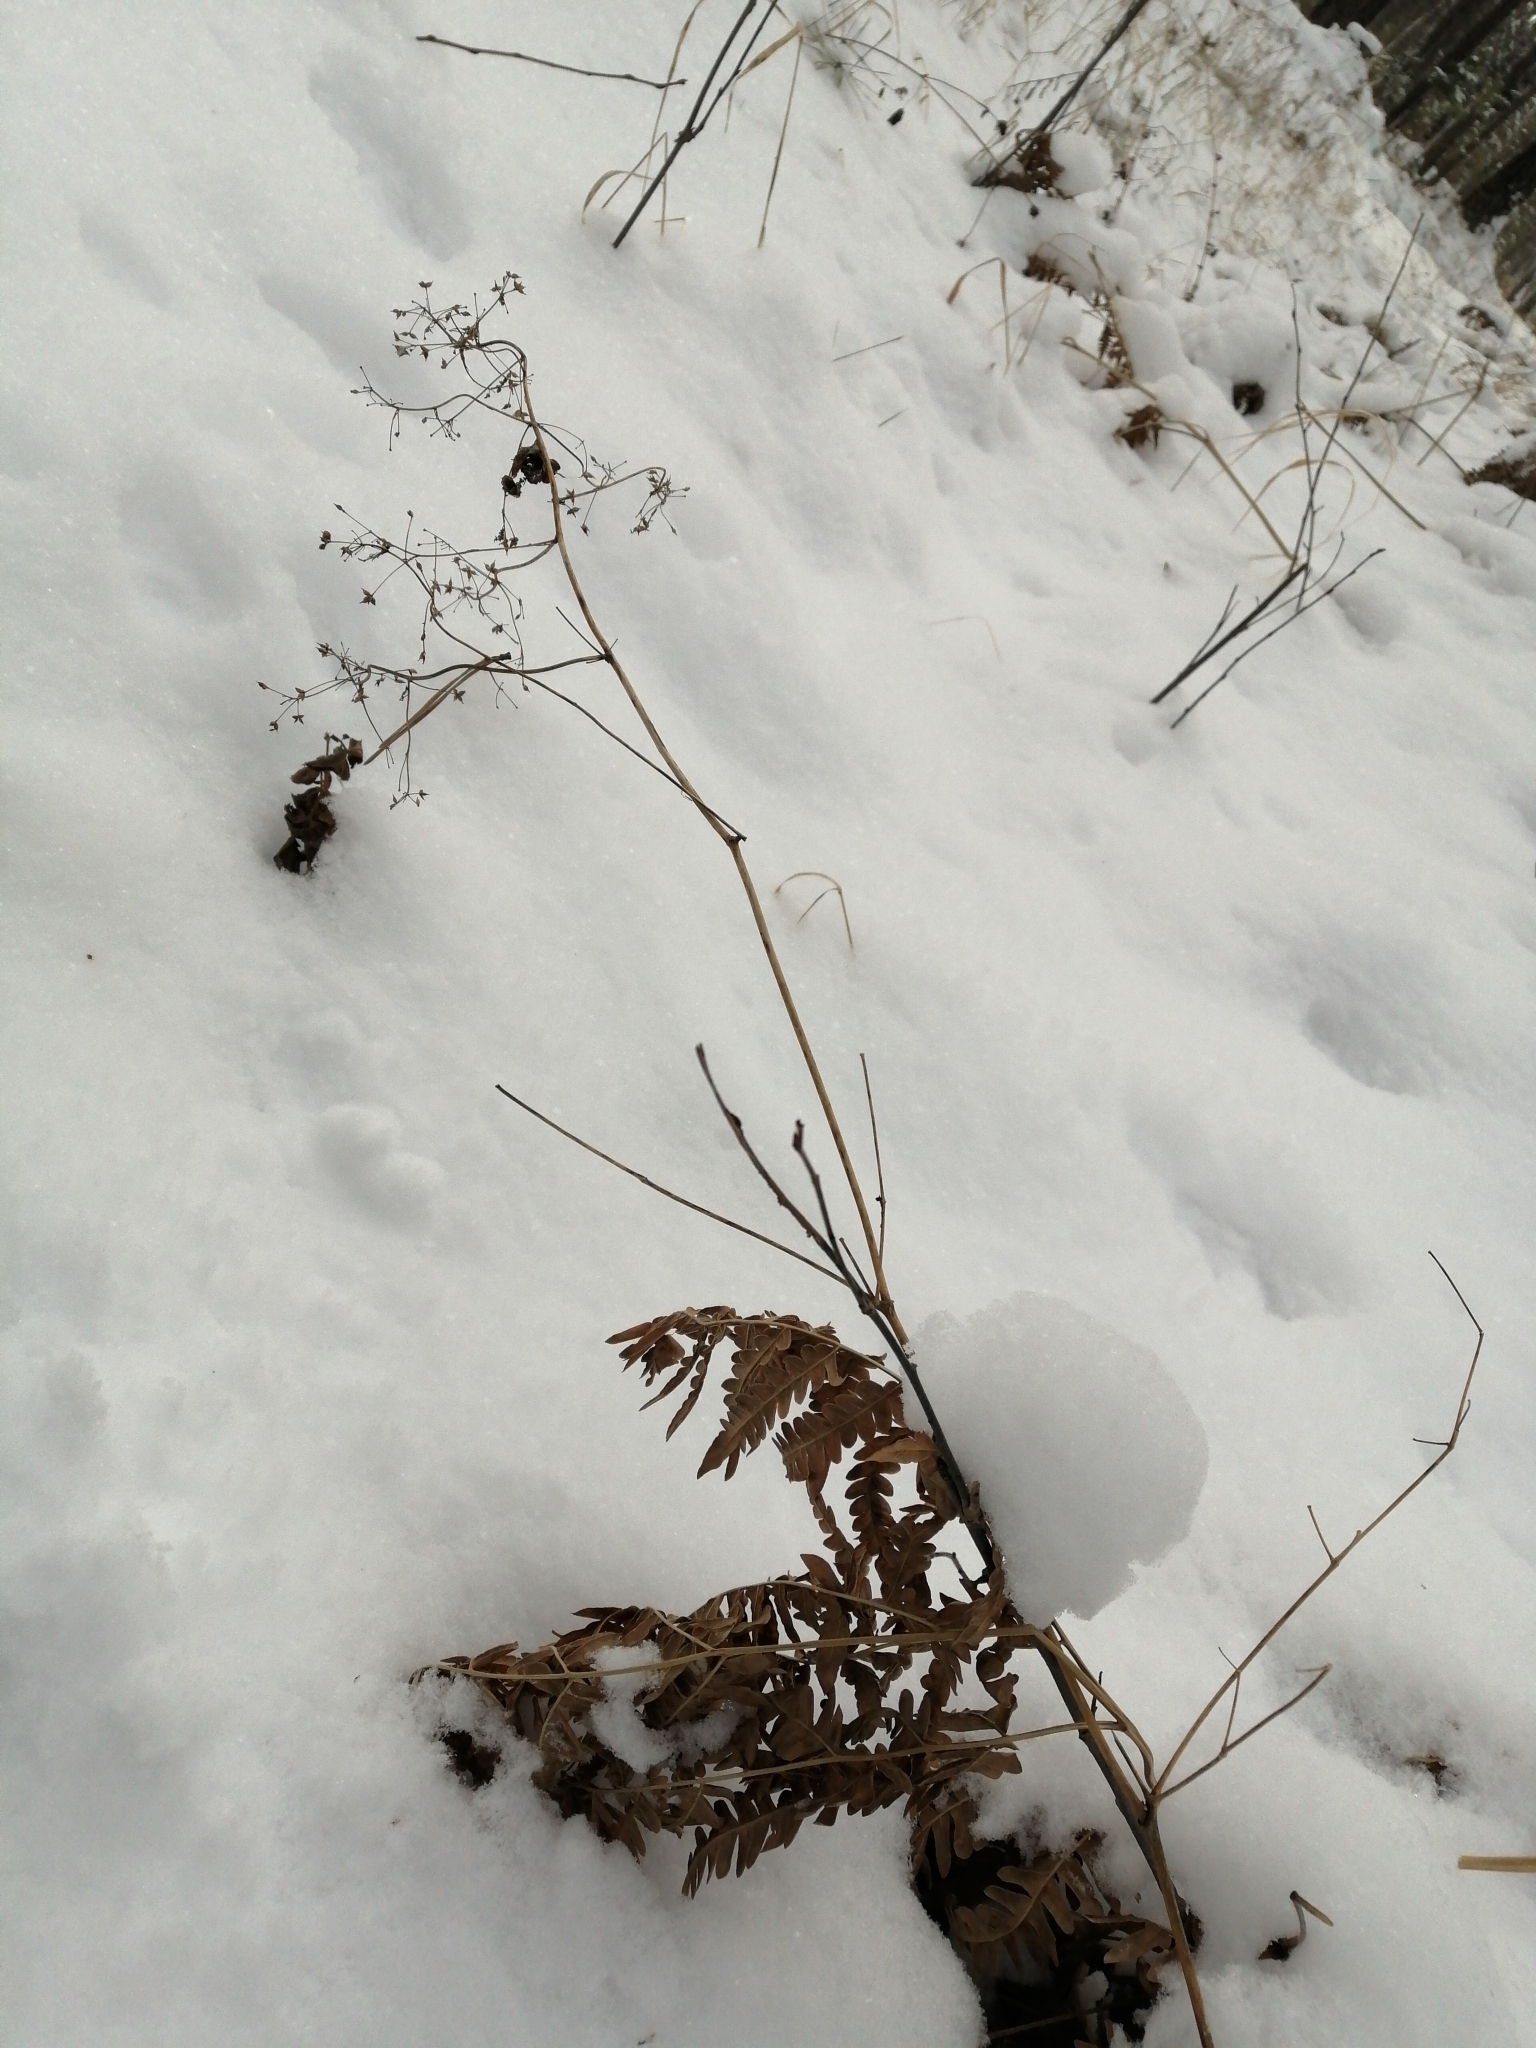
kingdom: Plantae
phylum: Tracheophyta
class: Polypodiopsida
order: Polypodiales
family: Dennstaedtiaceae
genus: Pteridium
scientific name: Pteridium aquilinum
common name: Bracken
